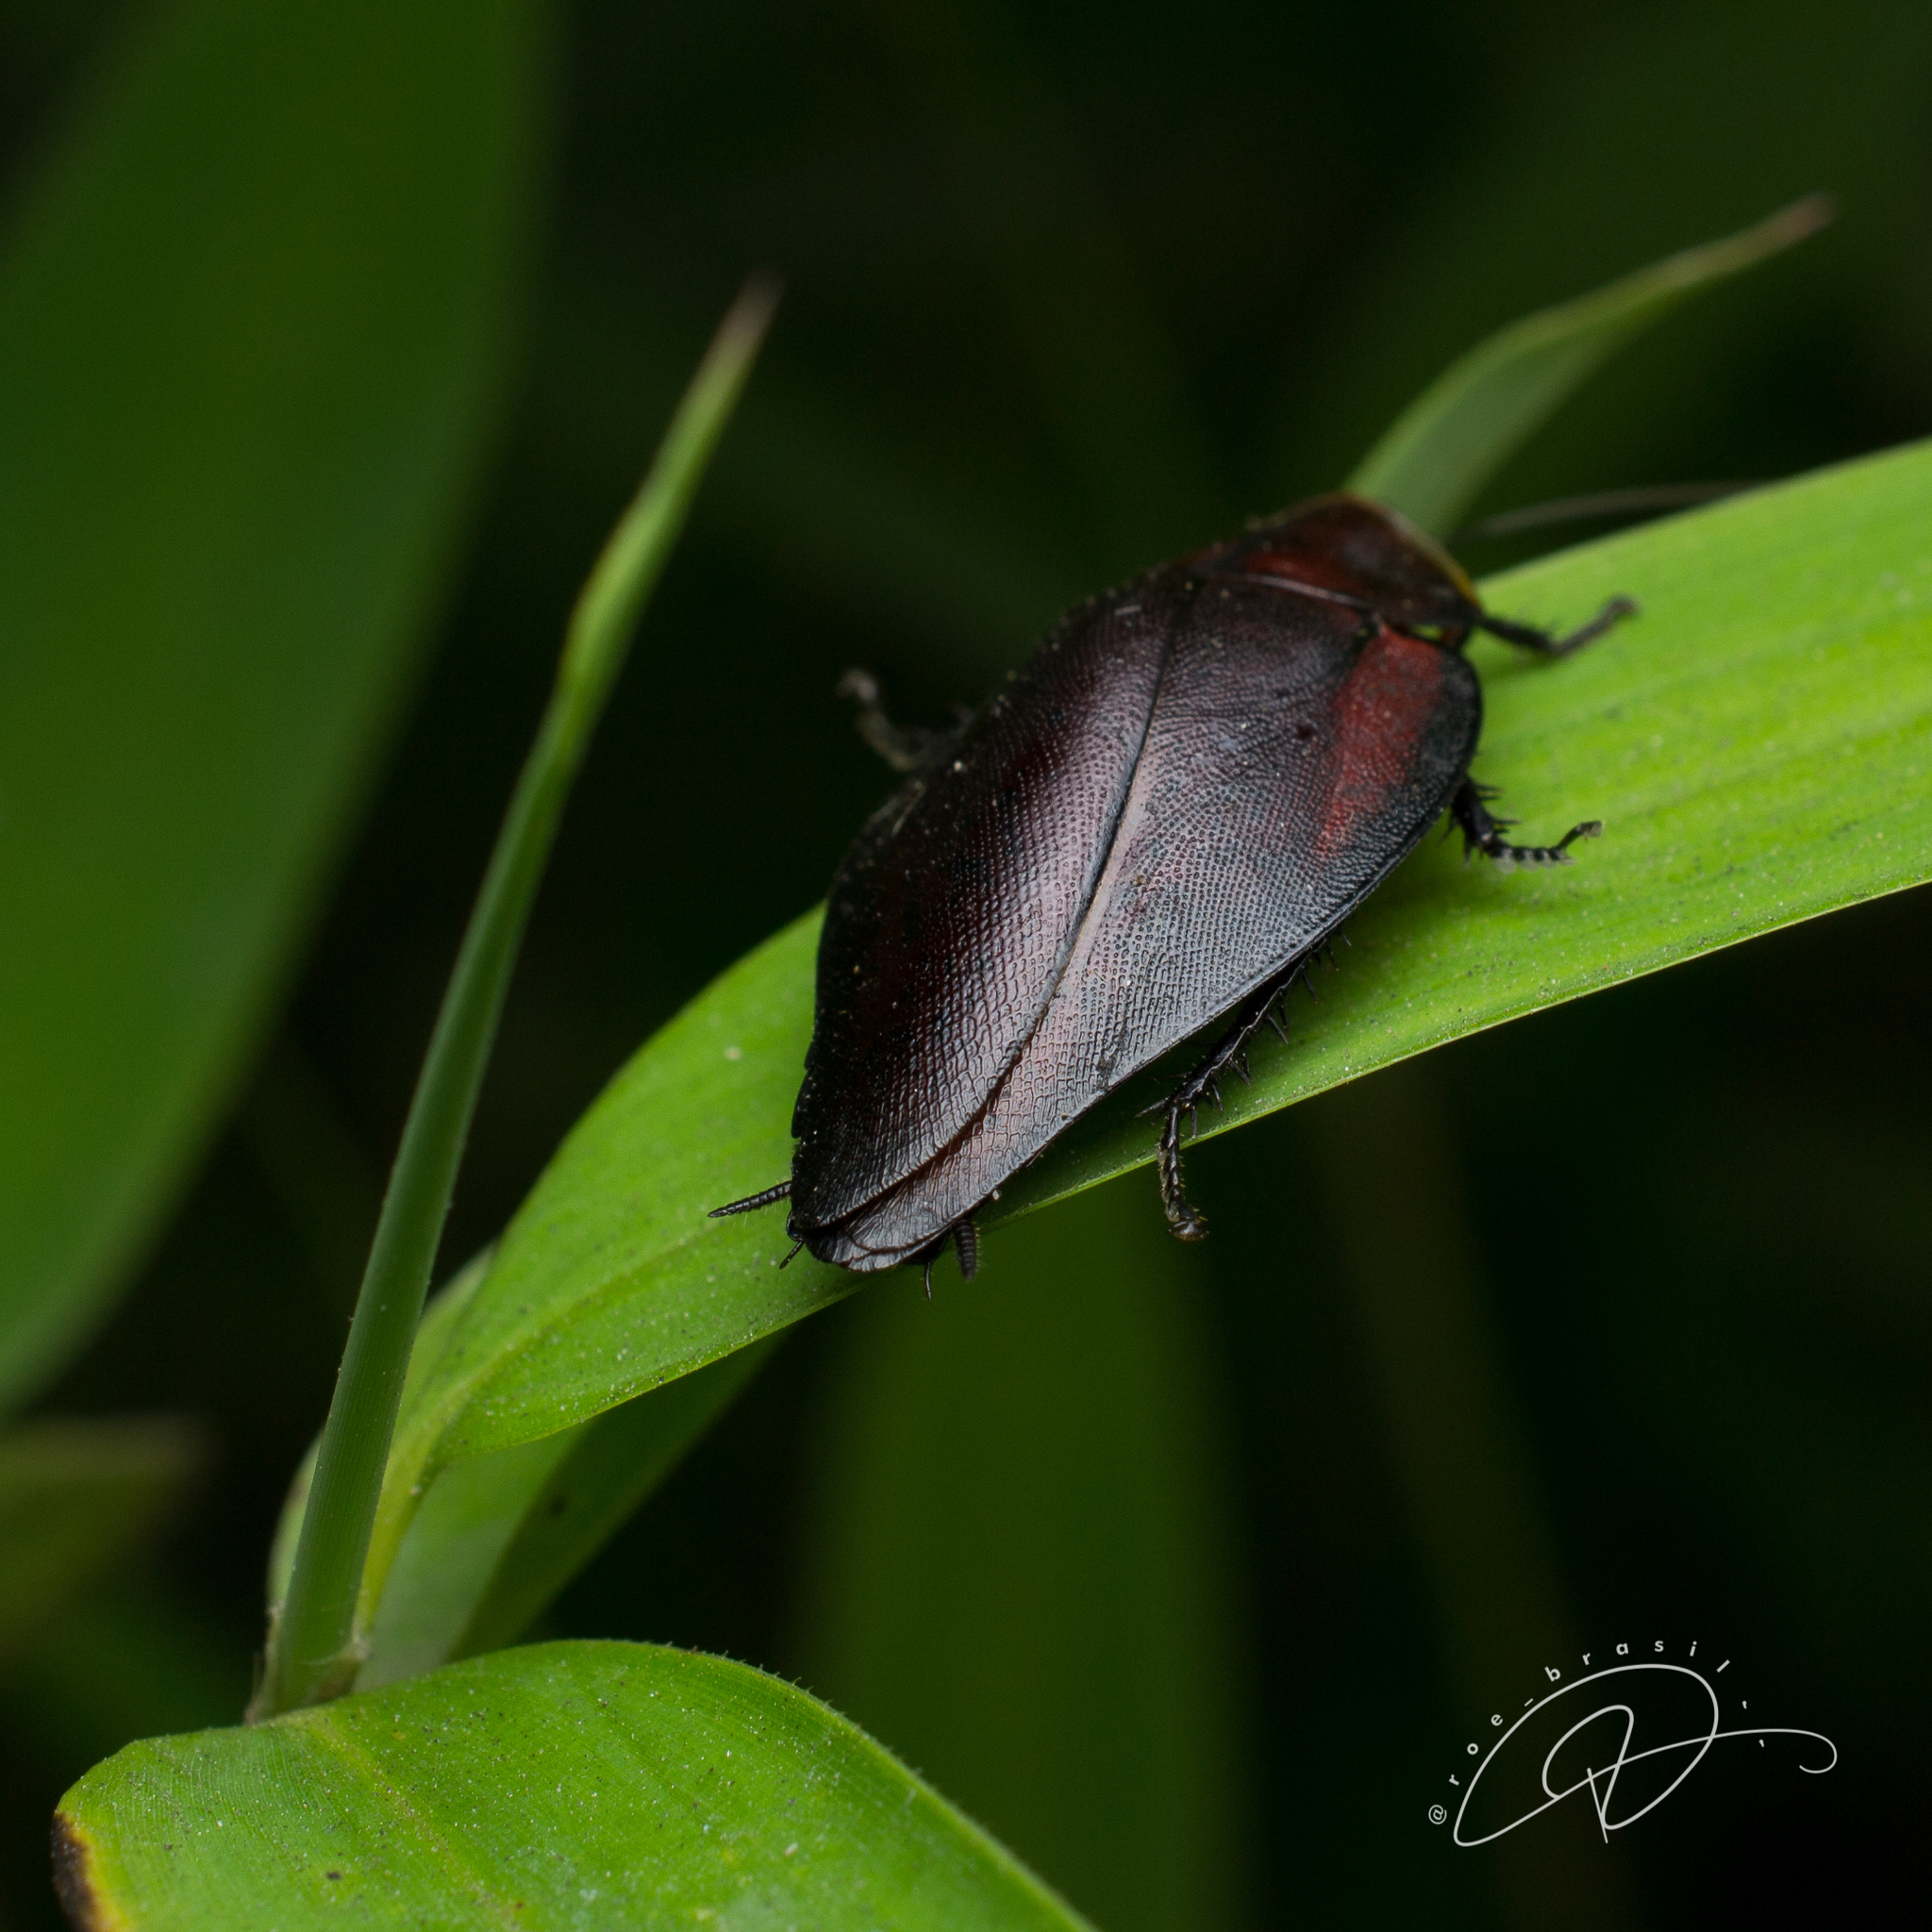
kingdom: Animalia
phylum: Arthropoda
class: Insecta
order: Blattodea
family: Blaberidae
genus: Phoraspis
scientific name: Phoraspis picta
